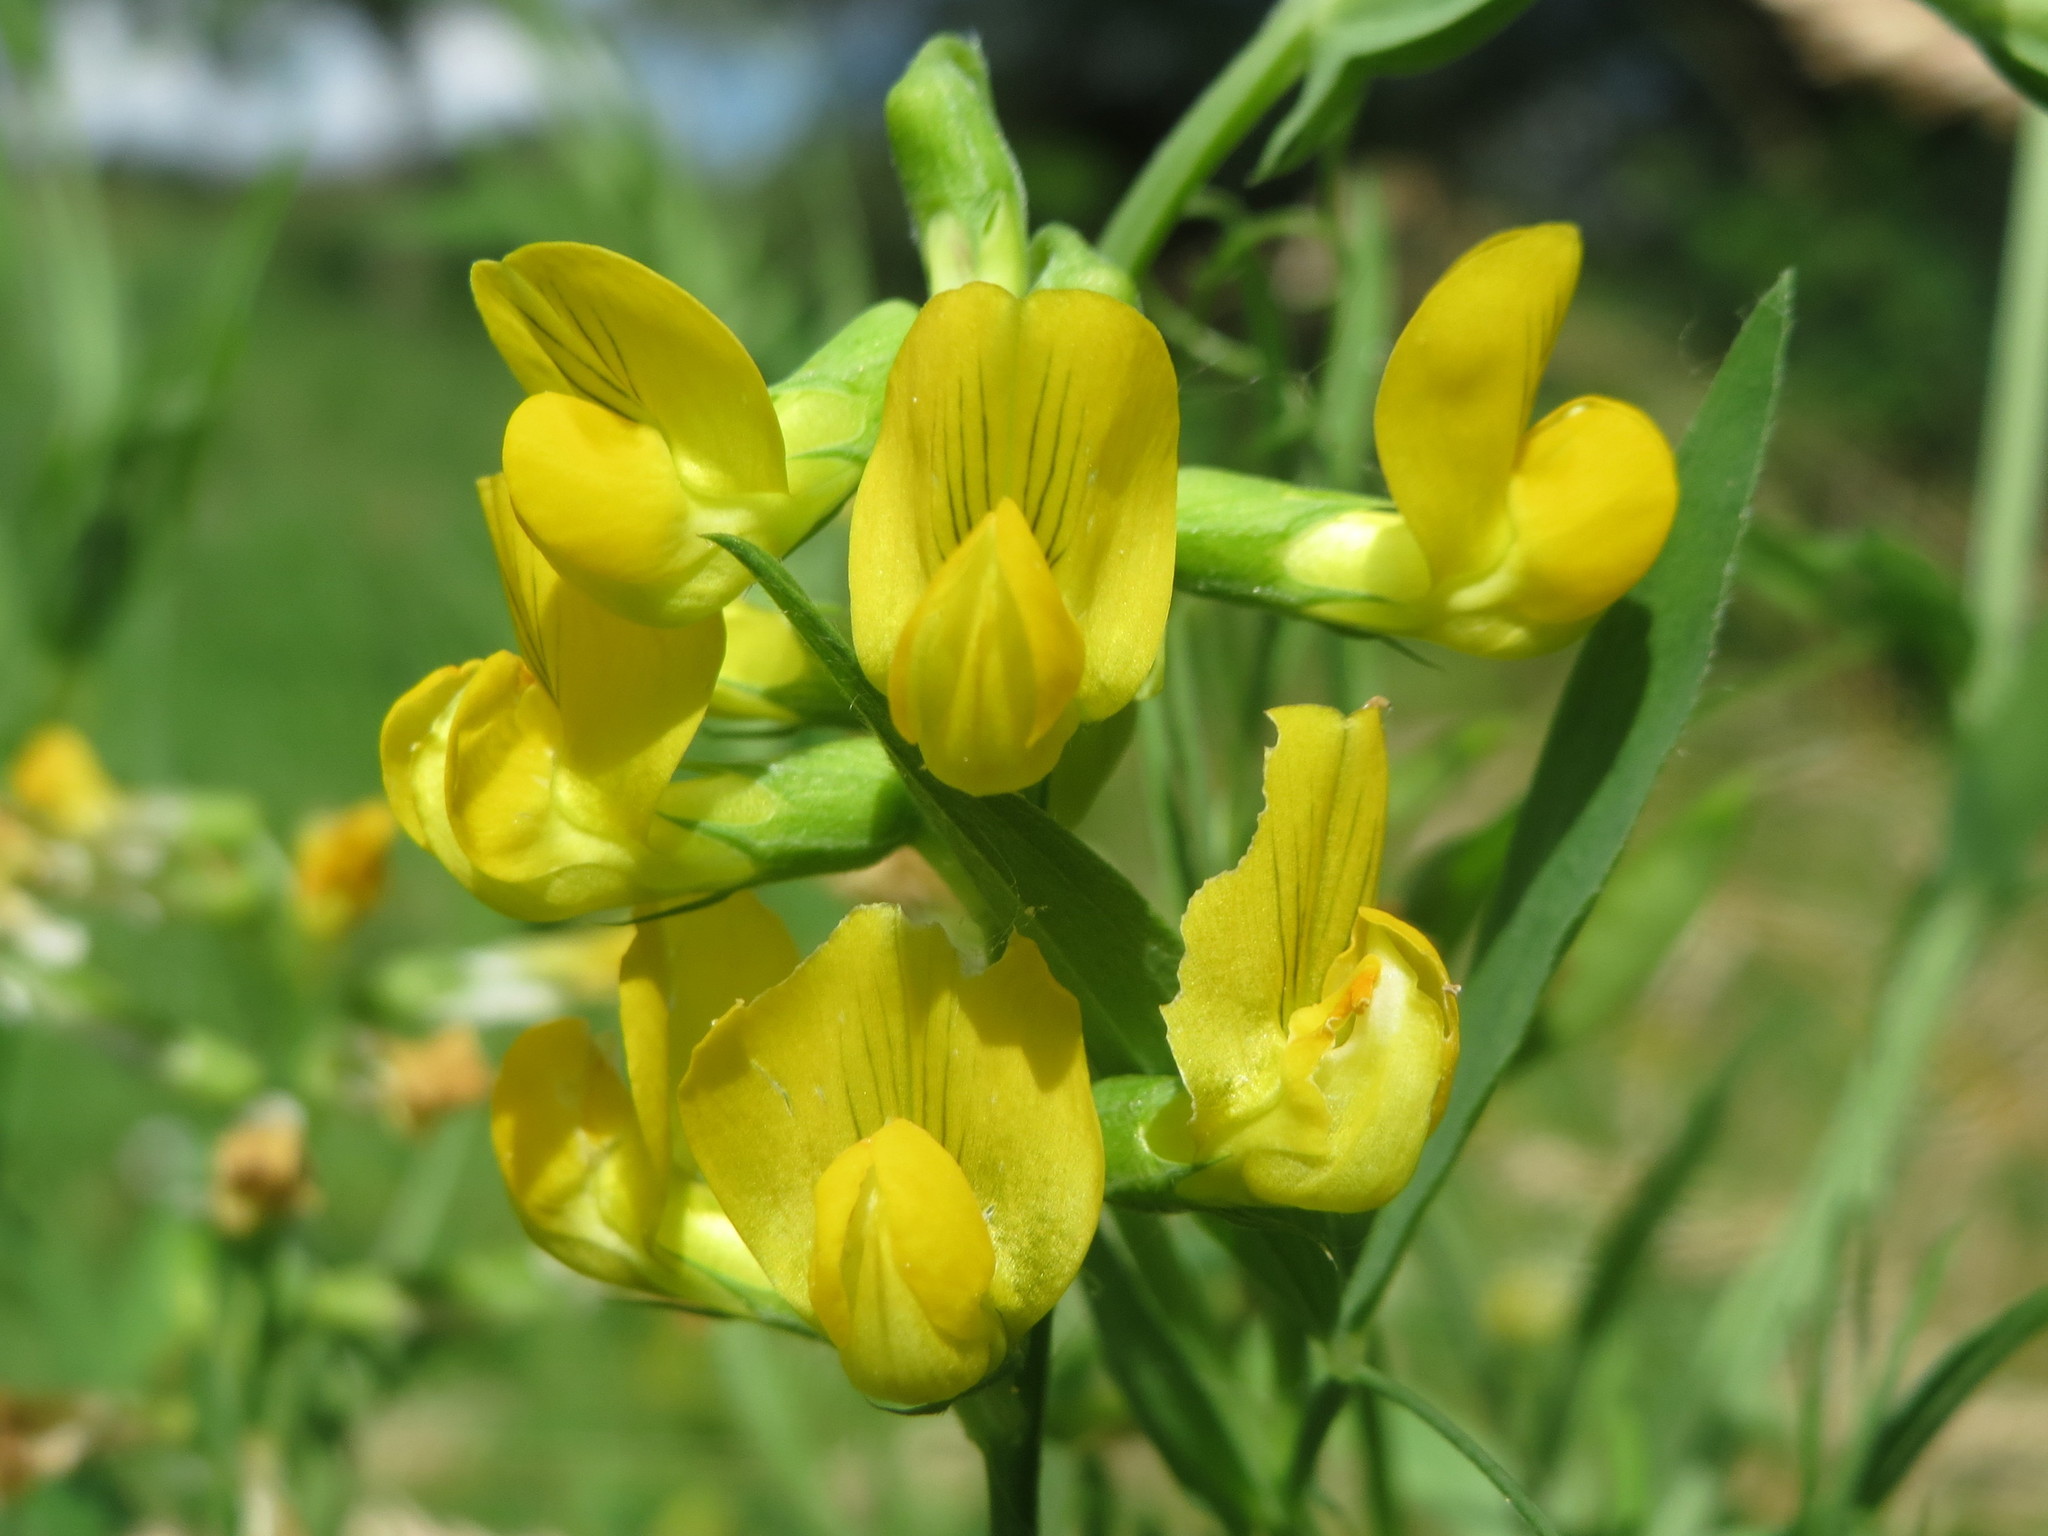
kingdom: Plantae
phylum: Tracheophyta
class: Magnoliopsida
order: Fabales
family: Fabaceae
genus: Lathyrus
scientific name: Lathyrus pratensis
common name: Meadow vetchling
